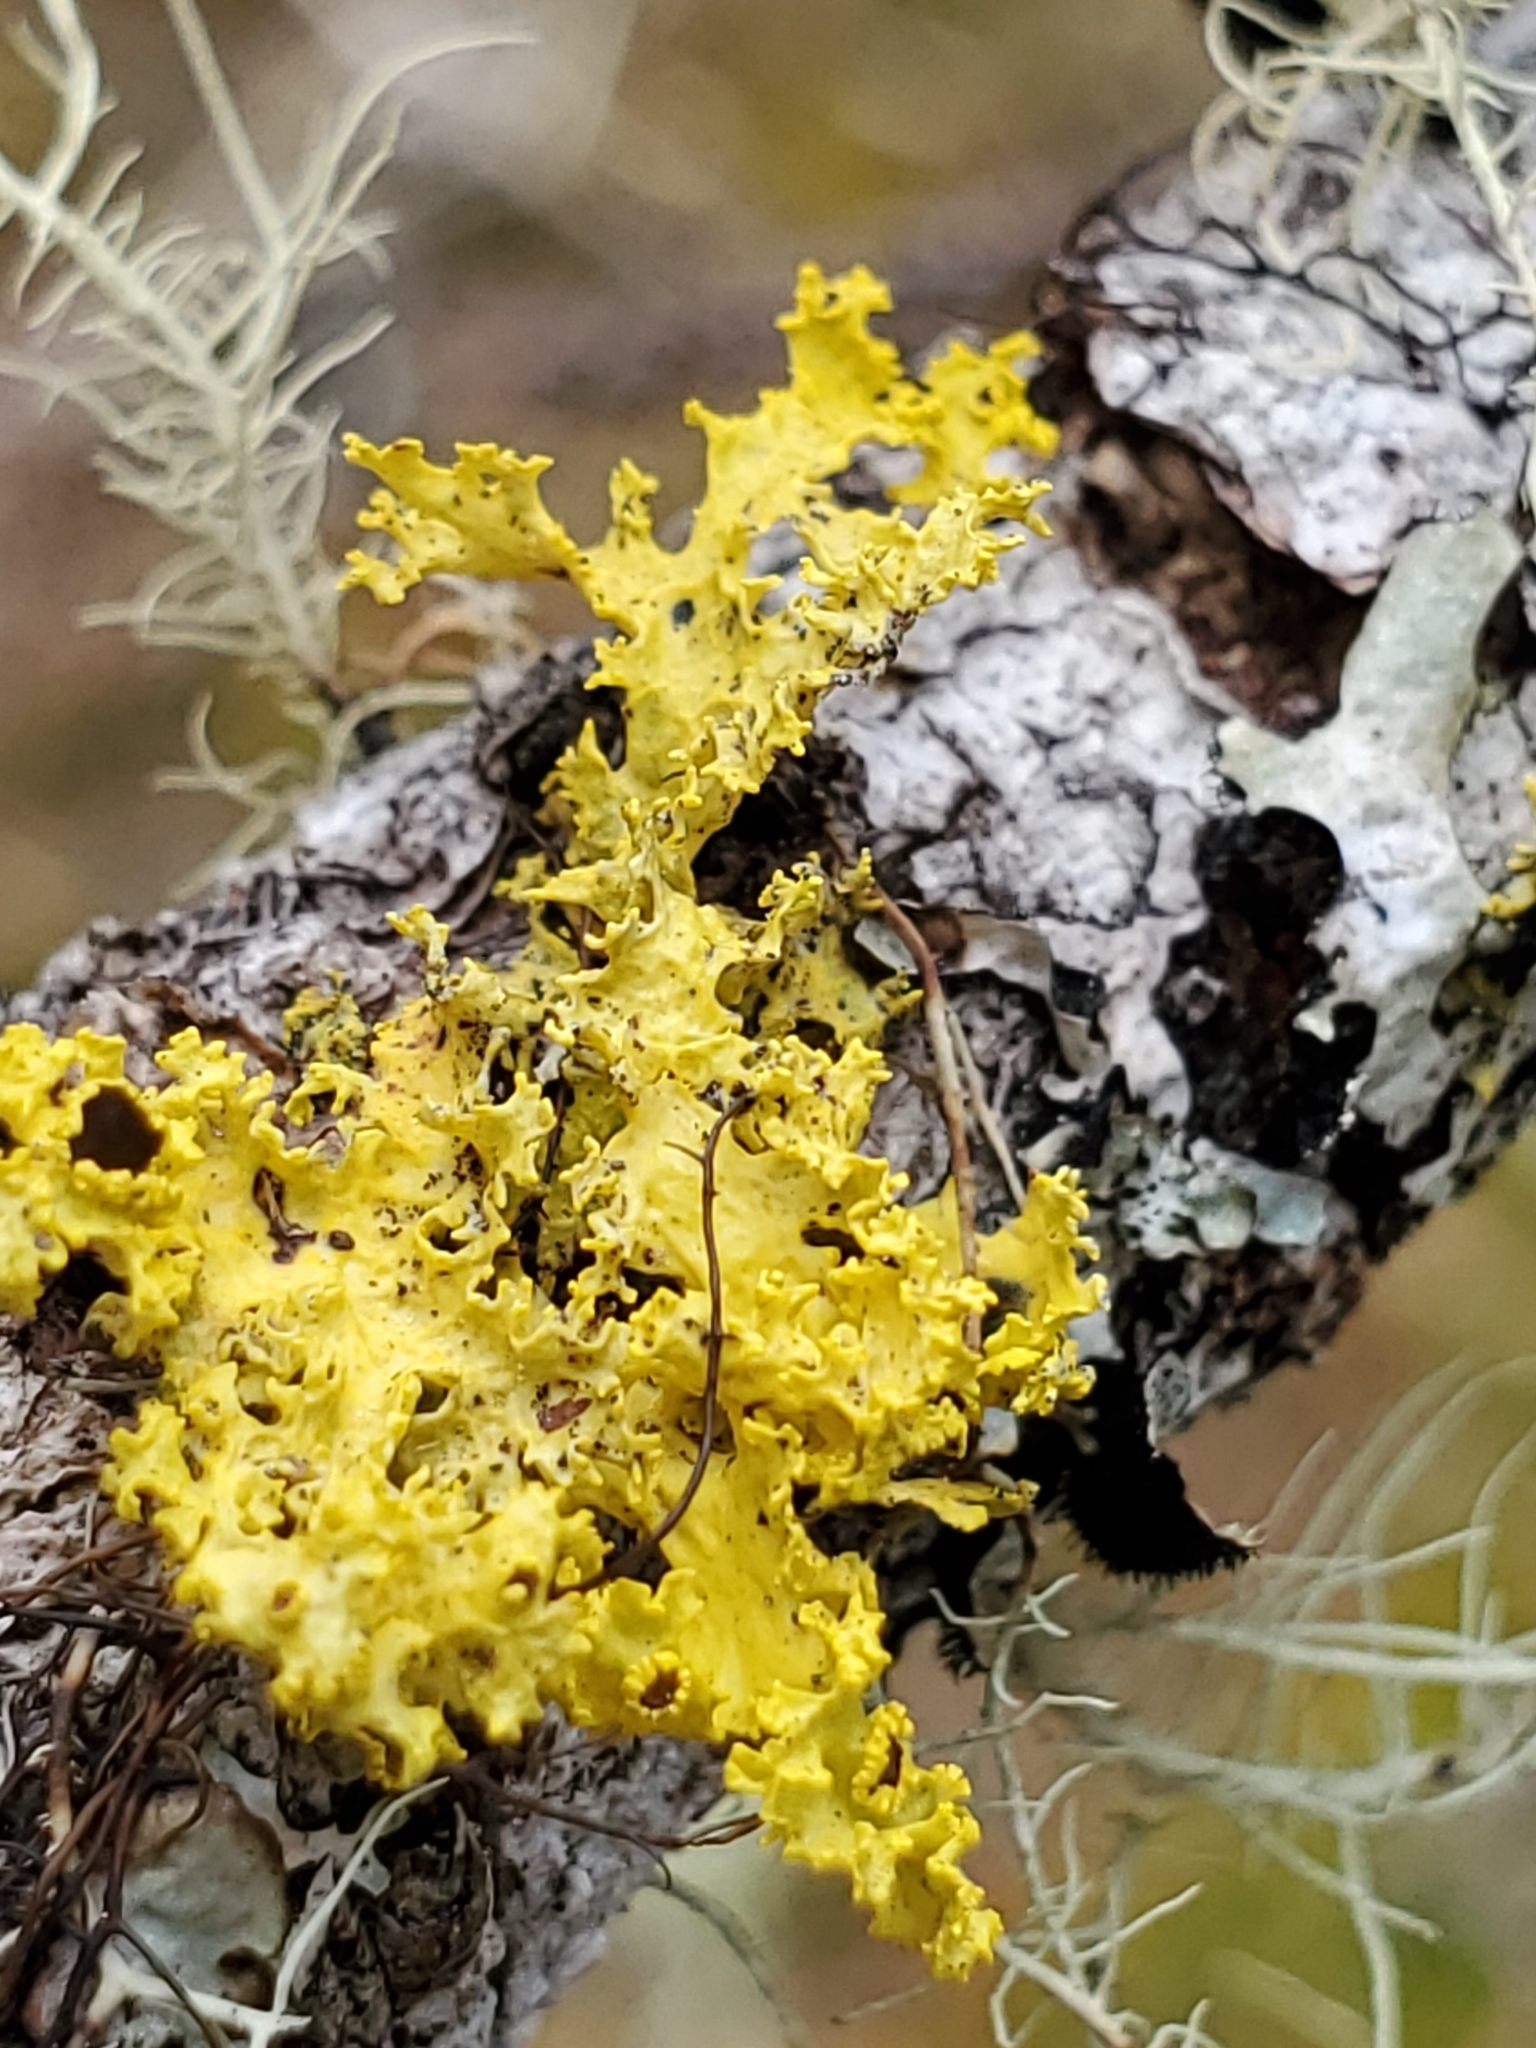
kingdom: Fungi
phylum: Ascomycota
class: Lecanoromycetes
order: Lecanorales
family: Parmeliaceae
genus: Vulpicida
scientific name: Vulpicida canadensis
